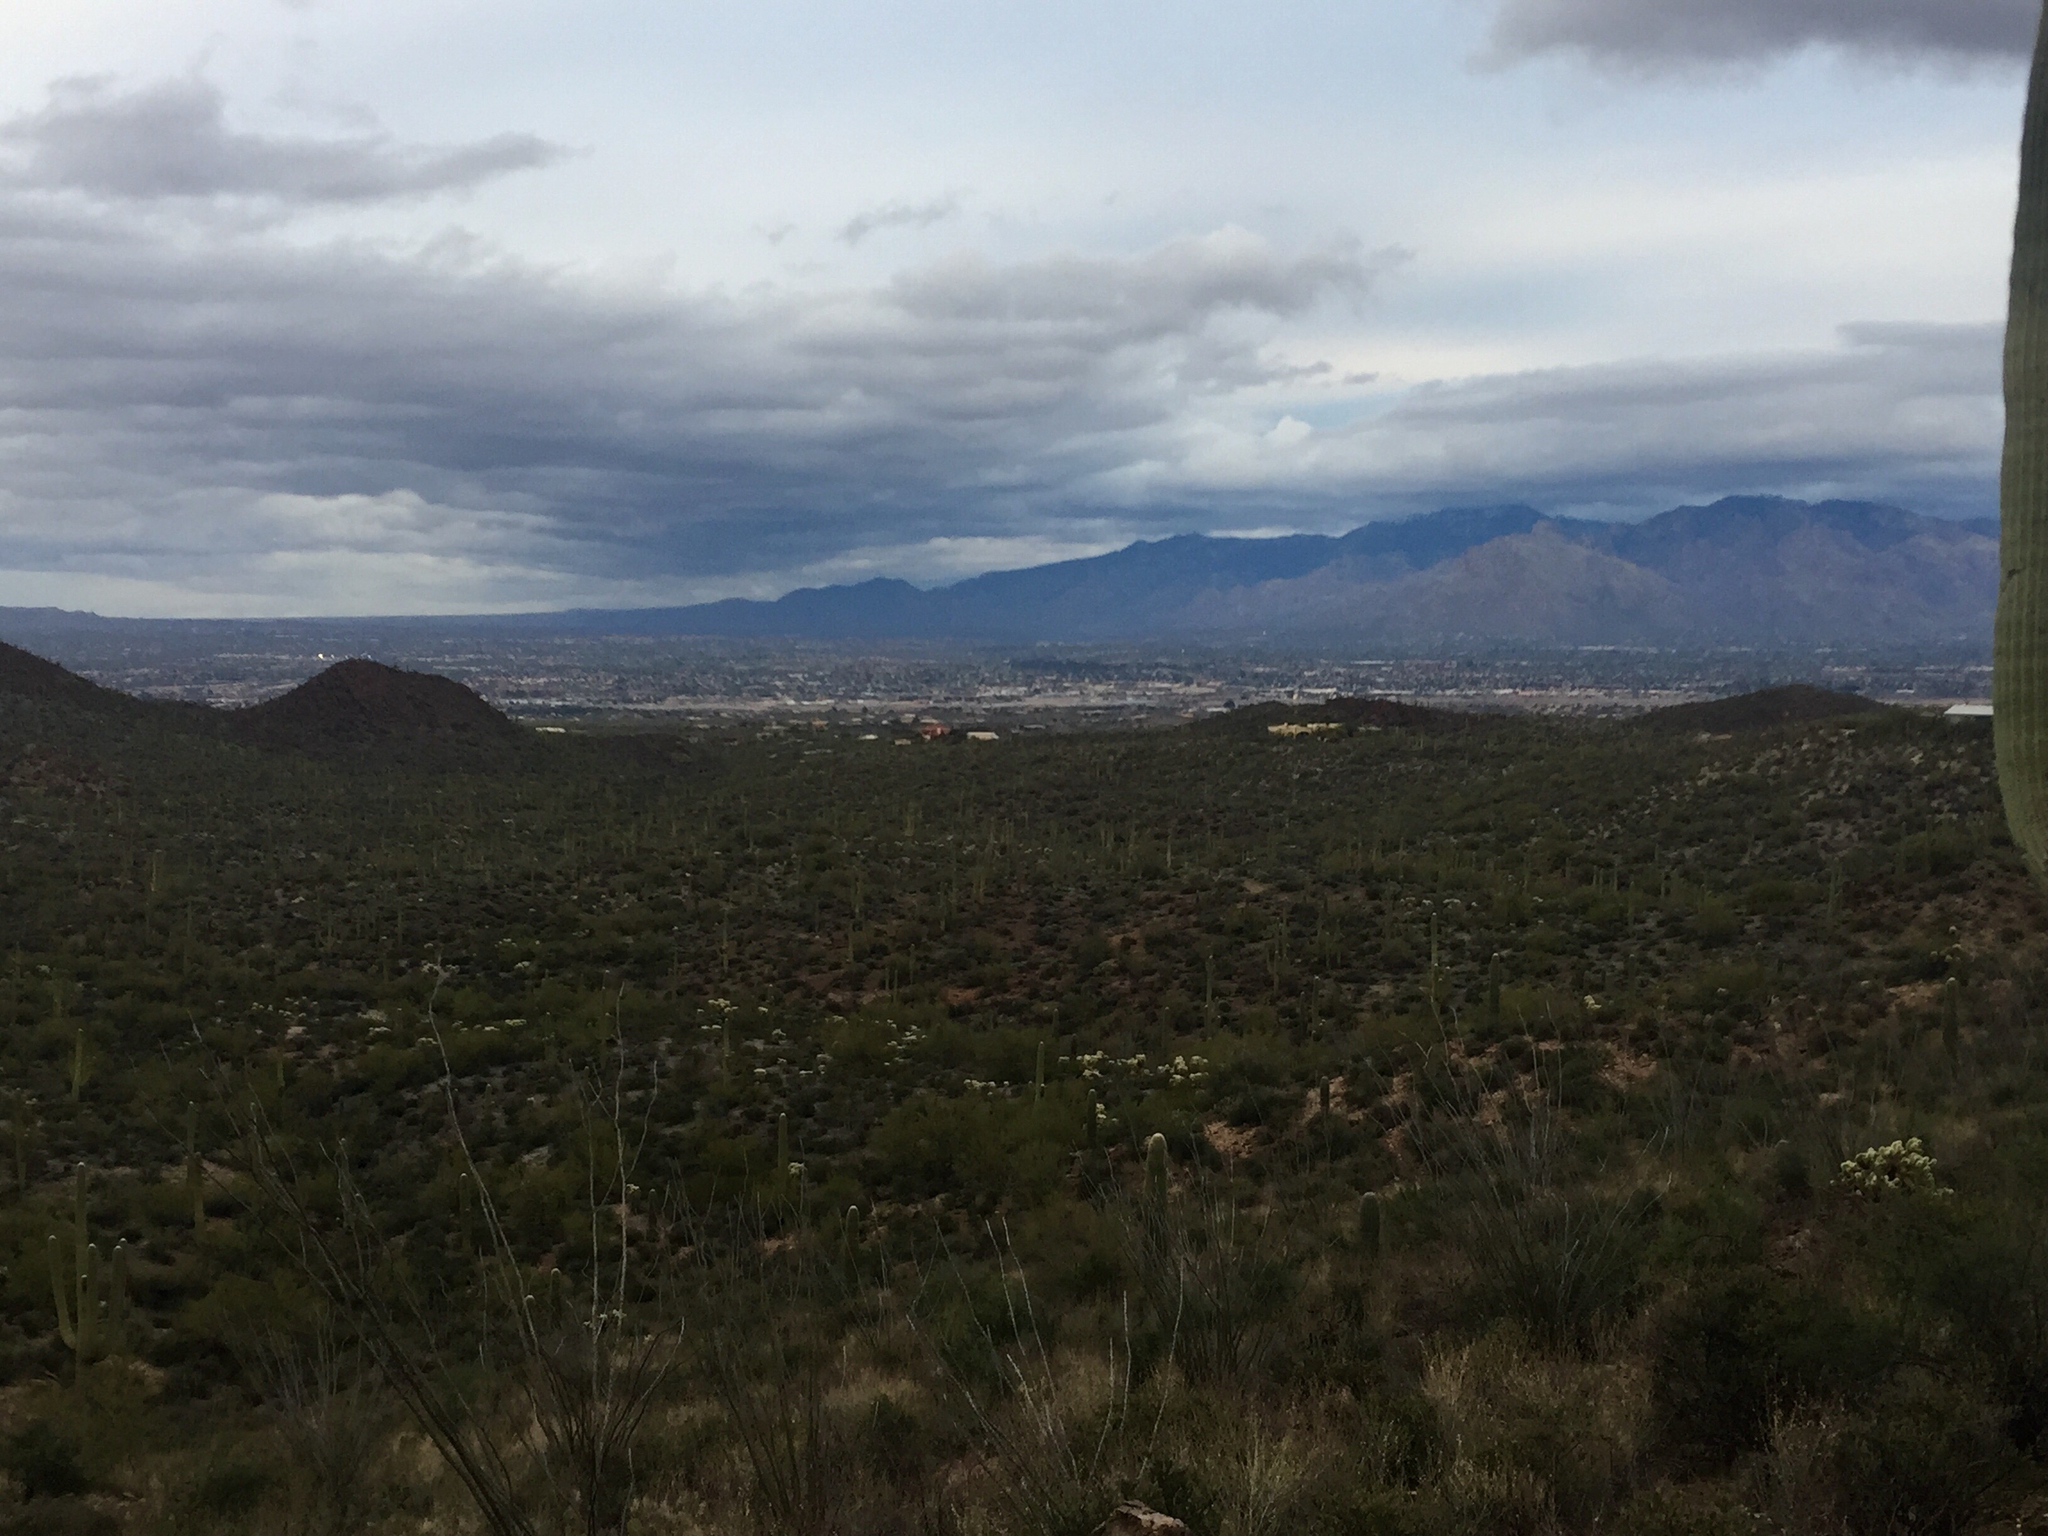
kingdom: Plantae
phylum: Tracheophyta
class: Magnoliopsida
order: Ericales
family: Fouquieriaceae
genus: Fouquieria
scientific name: Fouquieria splendens
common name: Vine-cactus
